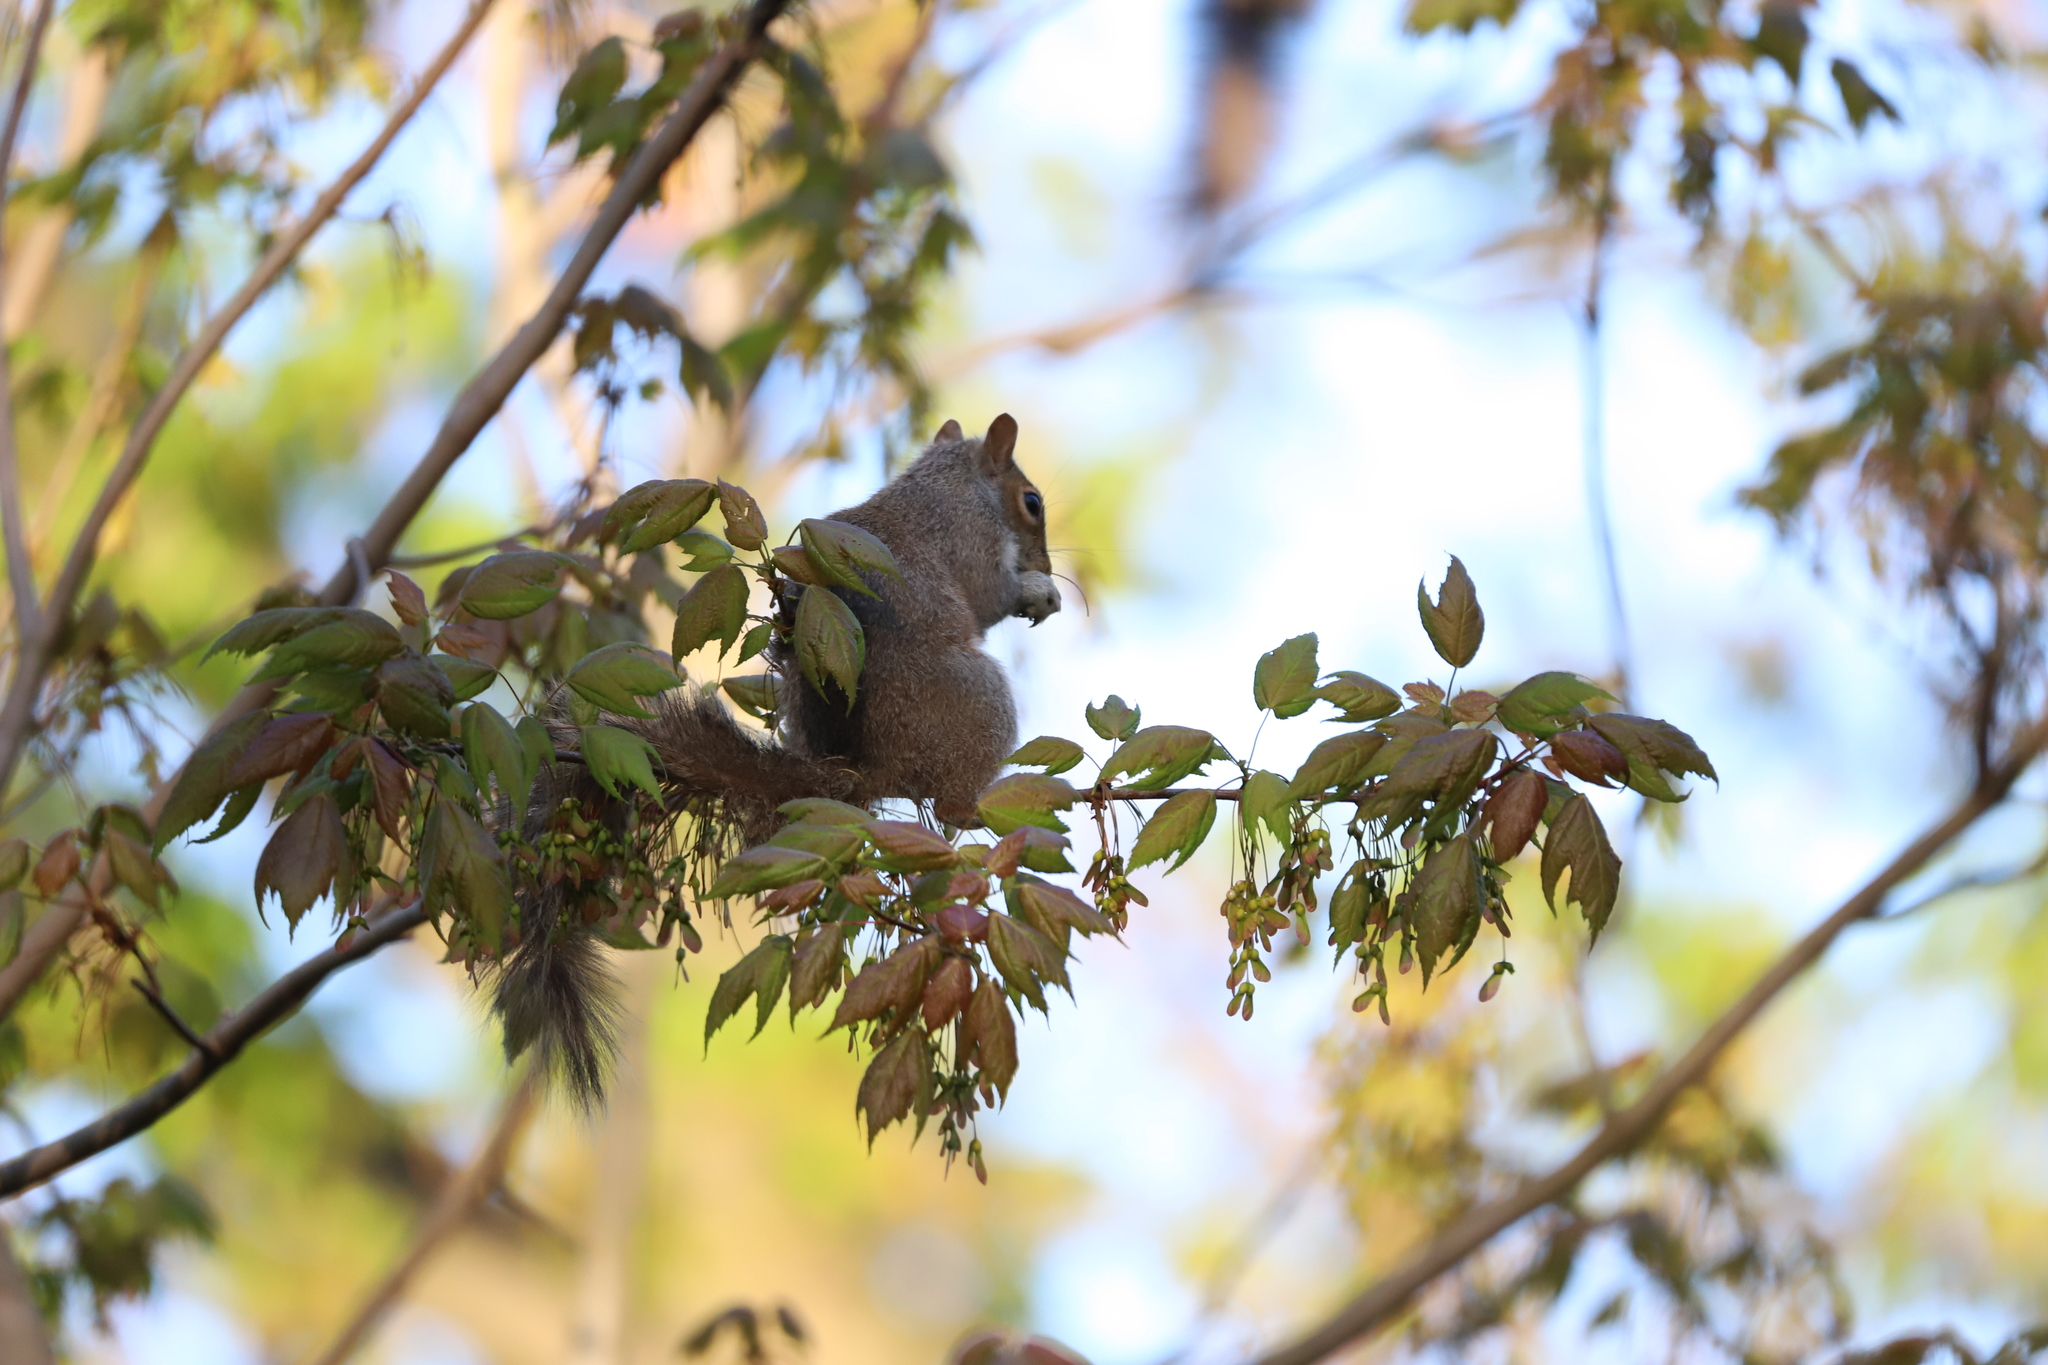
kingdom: Animalia
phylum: Chordata
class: Mammalia
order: Rodentia
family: Sciuridae
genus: Sciurus
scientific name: Sciurus carolinensis
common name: Eastern gray squirrel
